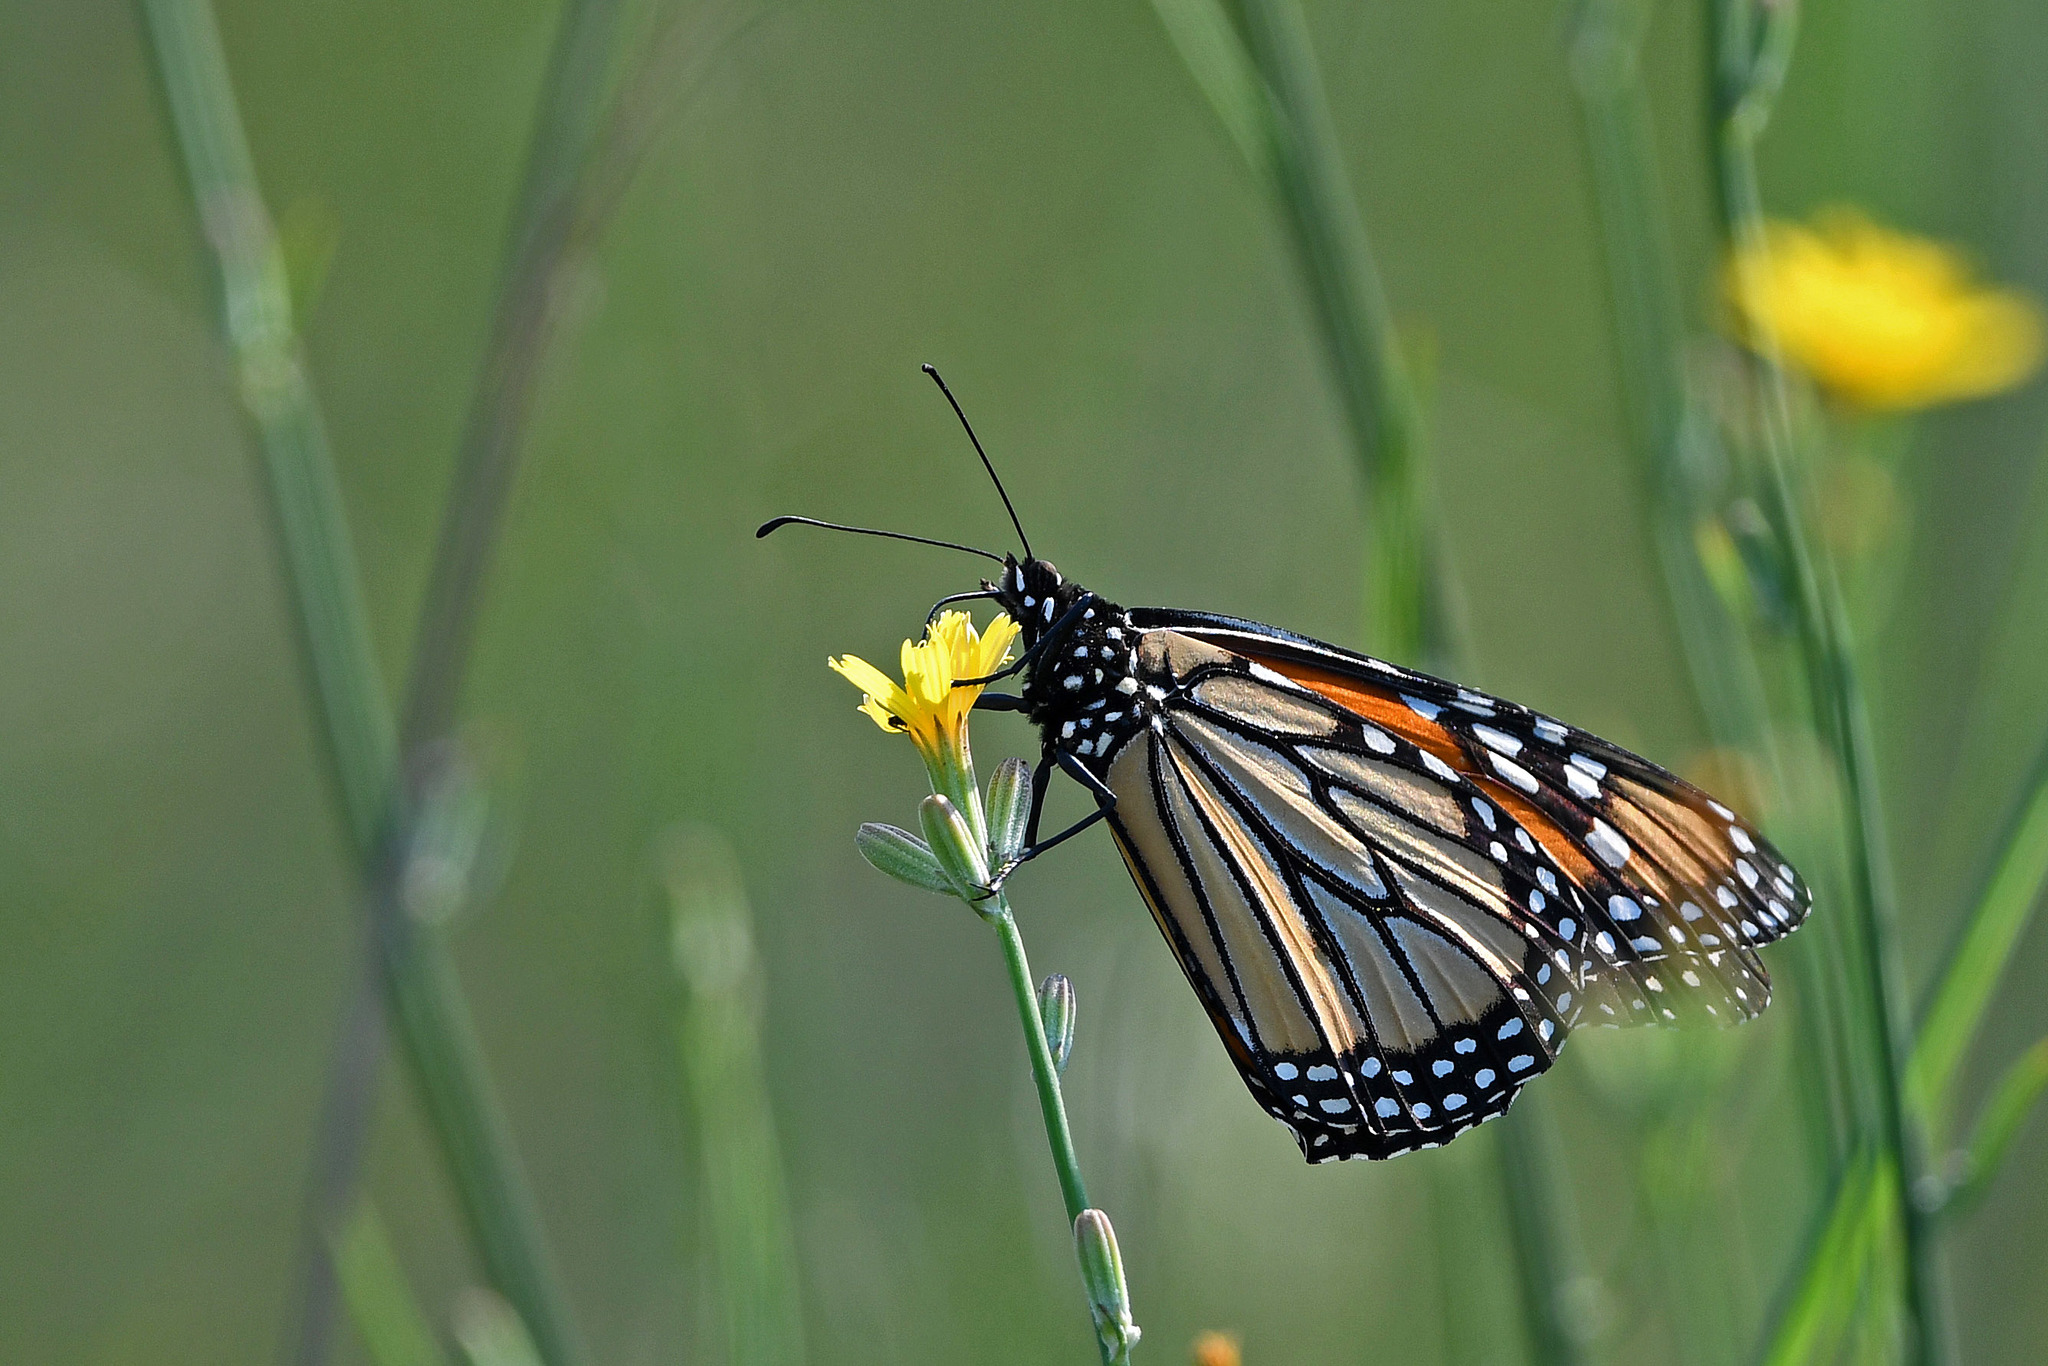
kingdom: Animalia
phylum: Arthropoda
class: Insecta
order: Lepidoptera
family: Nymphalidae
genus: Danaus
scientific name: Danaus plexippus
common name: Monarch
